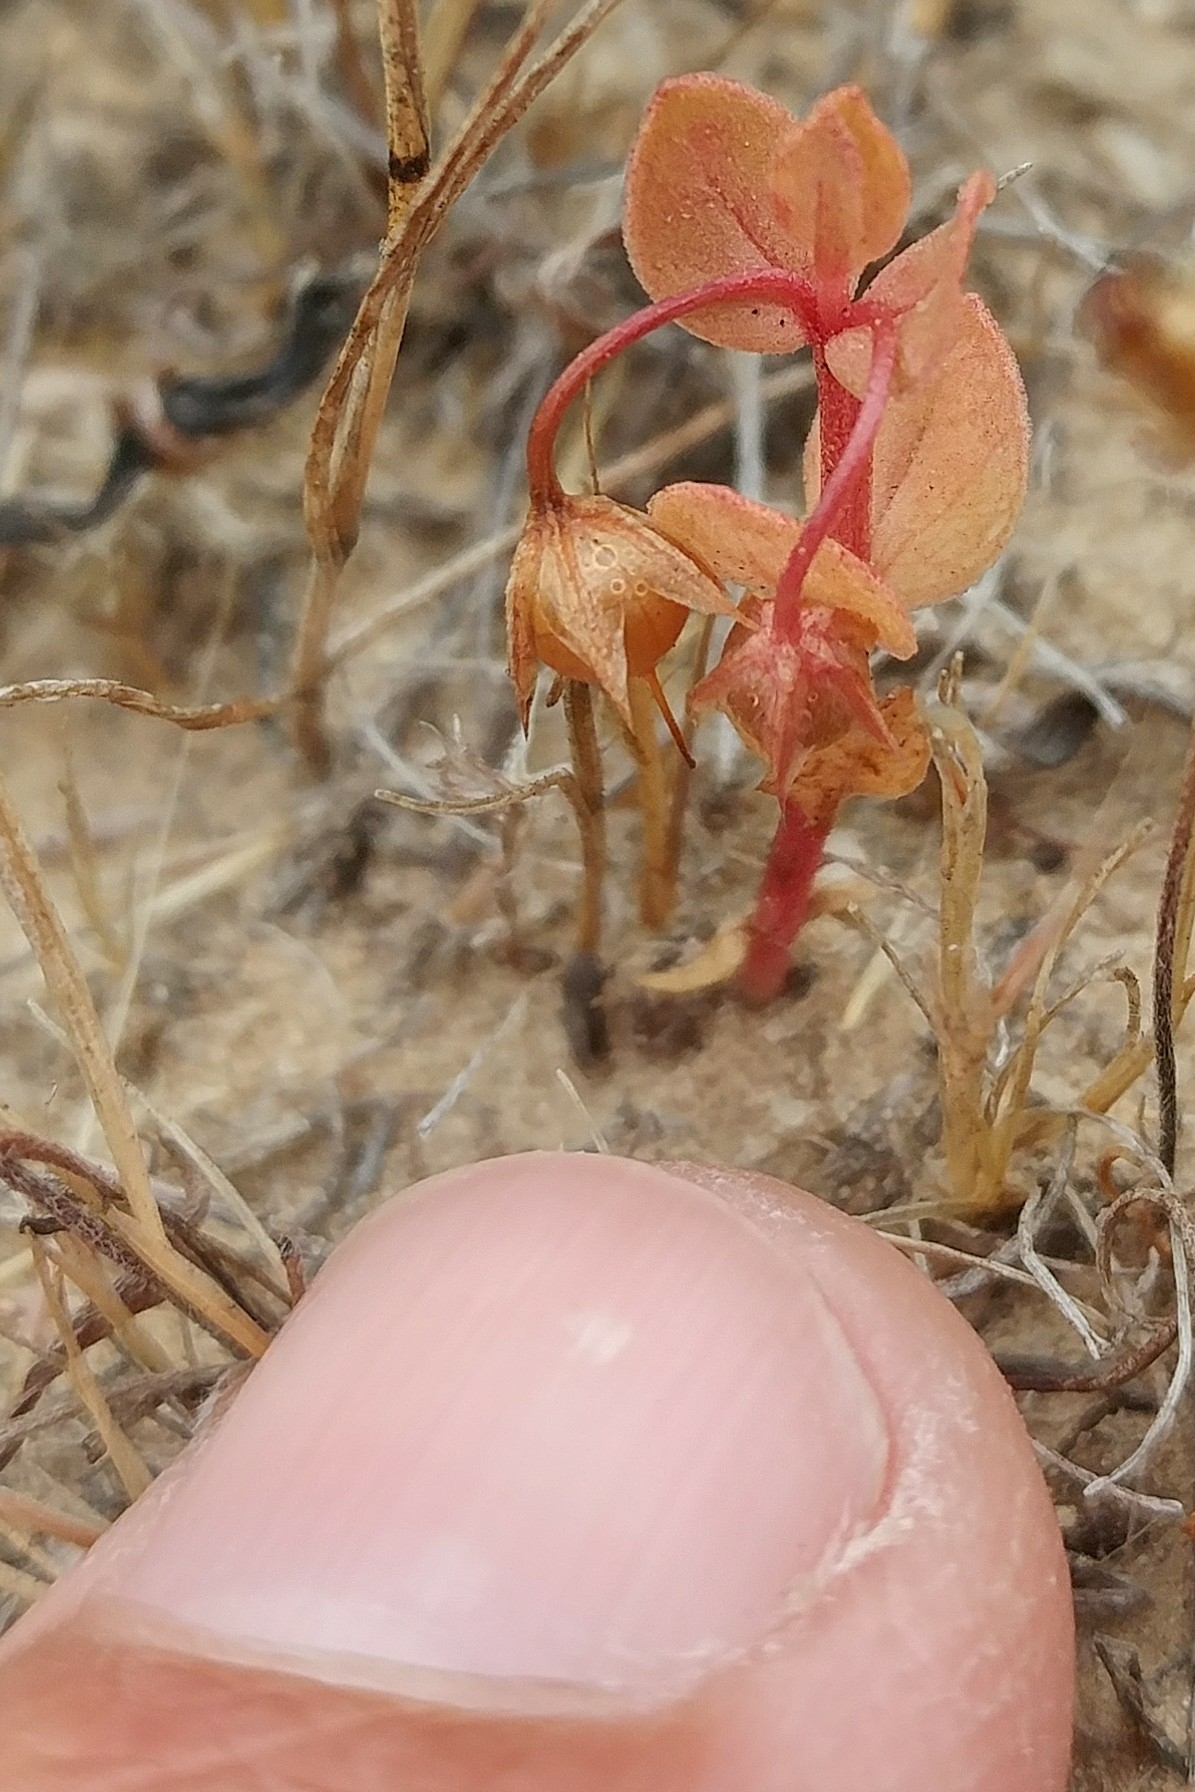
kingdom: Plantae
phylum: Tracheophyta
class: Magnoliopsida
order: Ericales
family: Primulaceae
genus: Lysimachia
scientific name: Lysimachia arvensis
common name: Scarlet pimpernel
